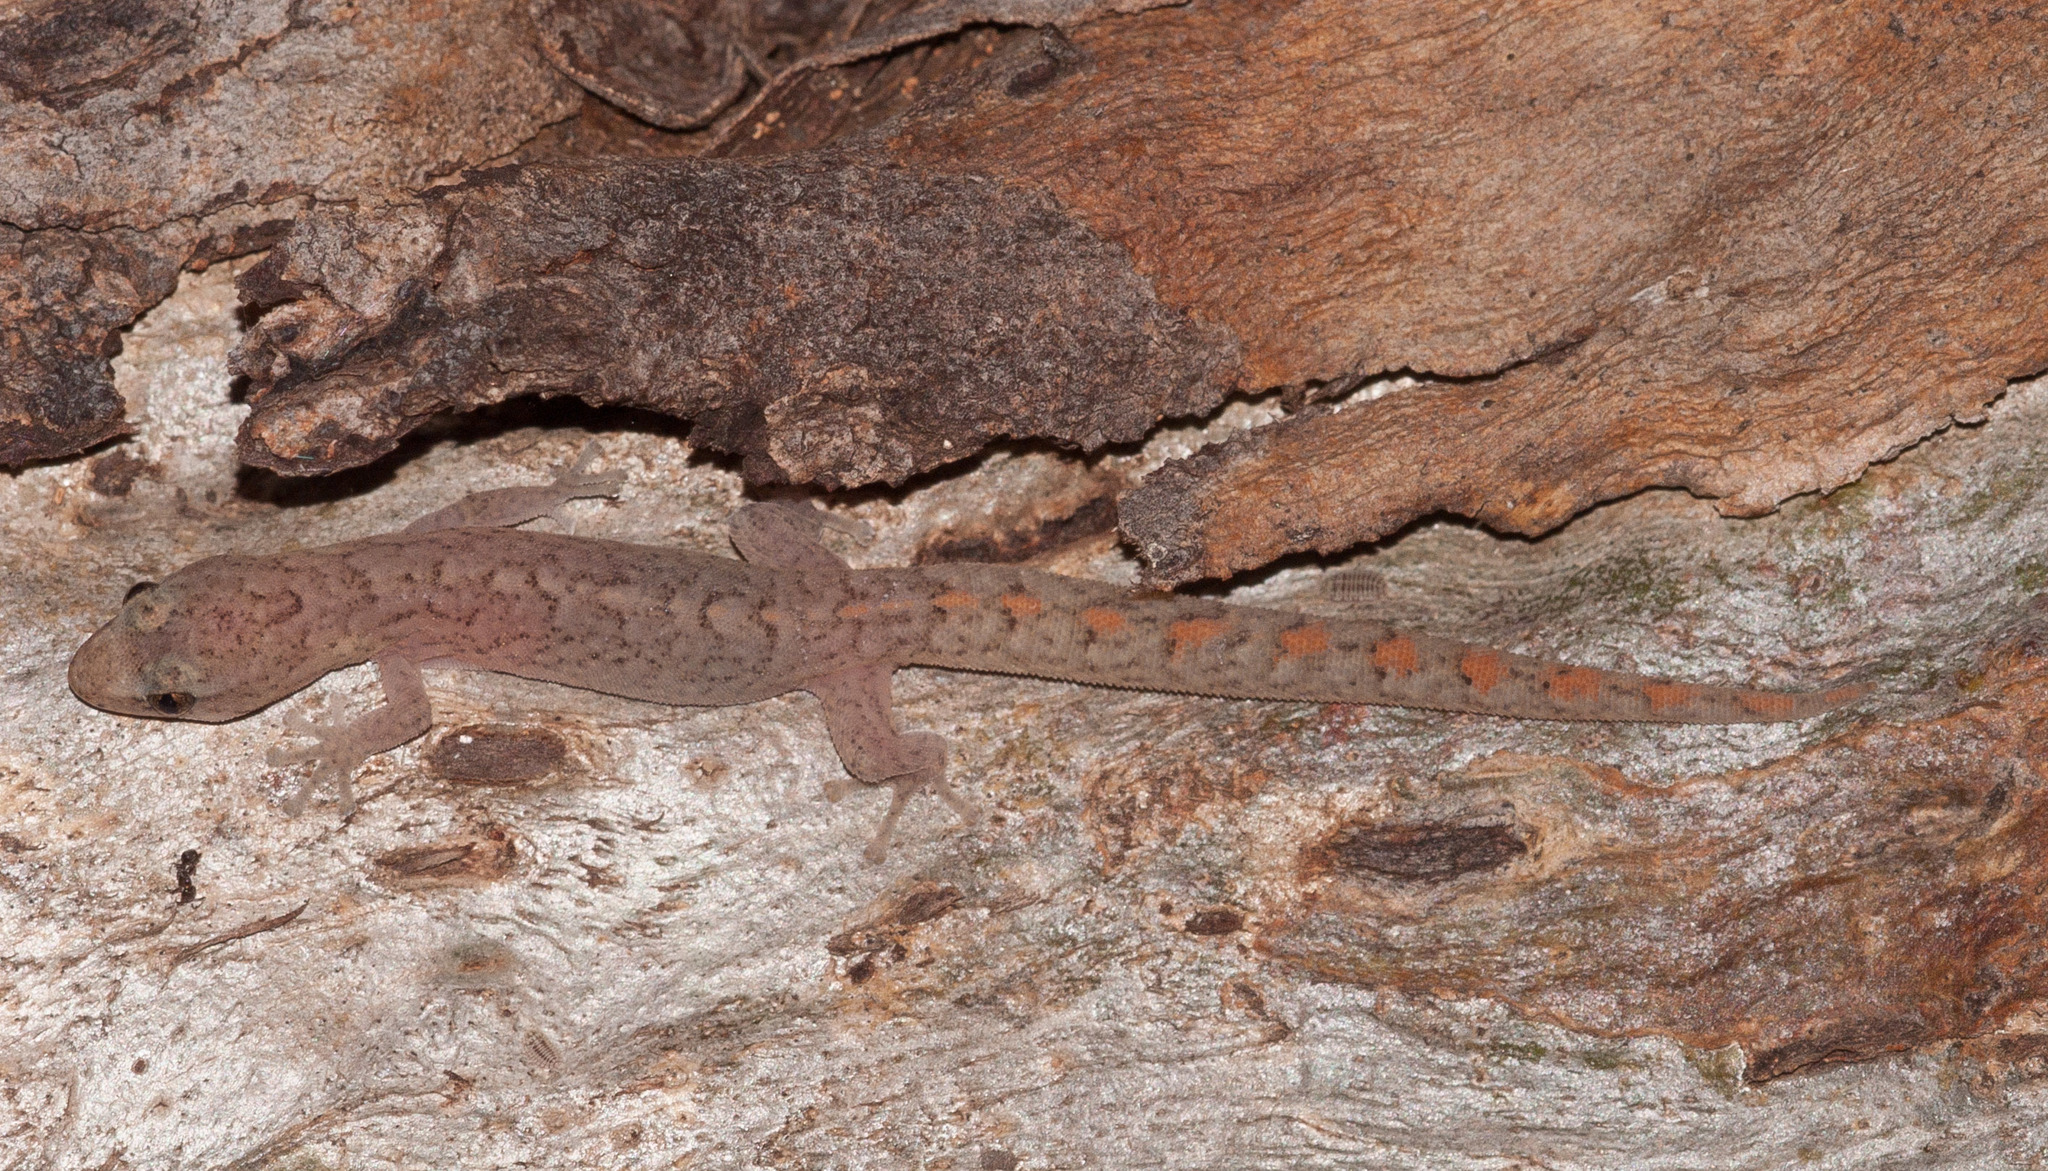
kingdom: Animalia
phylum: Chordata
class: Squamata
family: Gekkonidae
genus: Christinus
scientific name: Christinus marmoratus
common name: Marbled gecko
